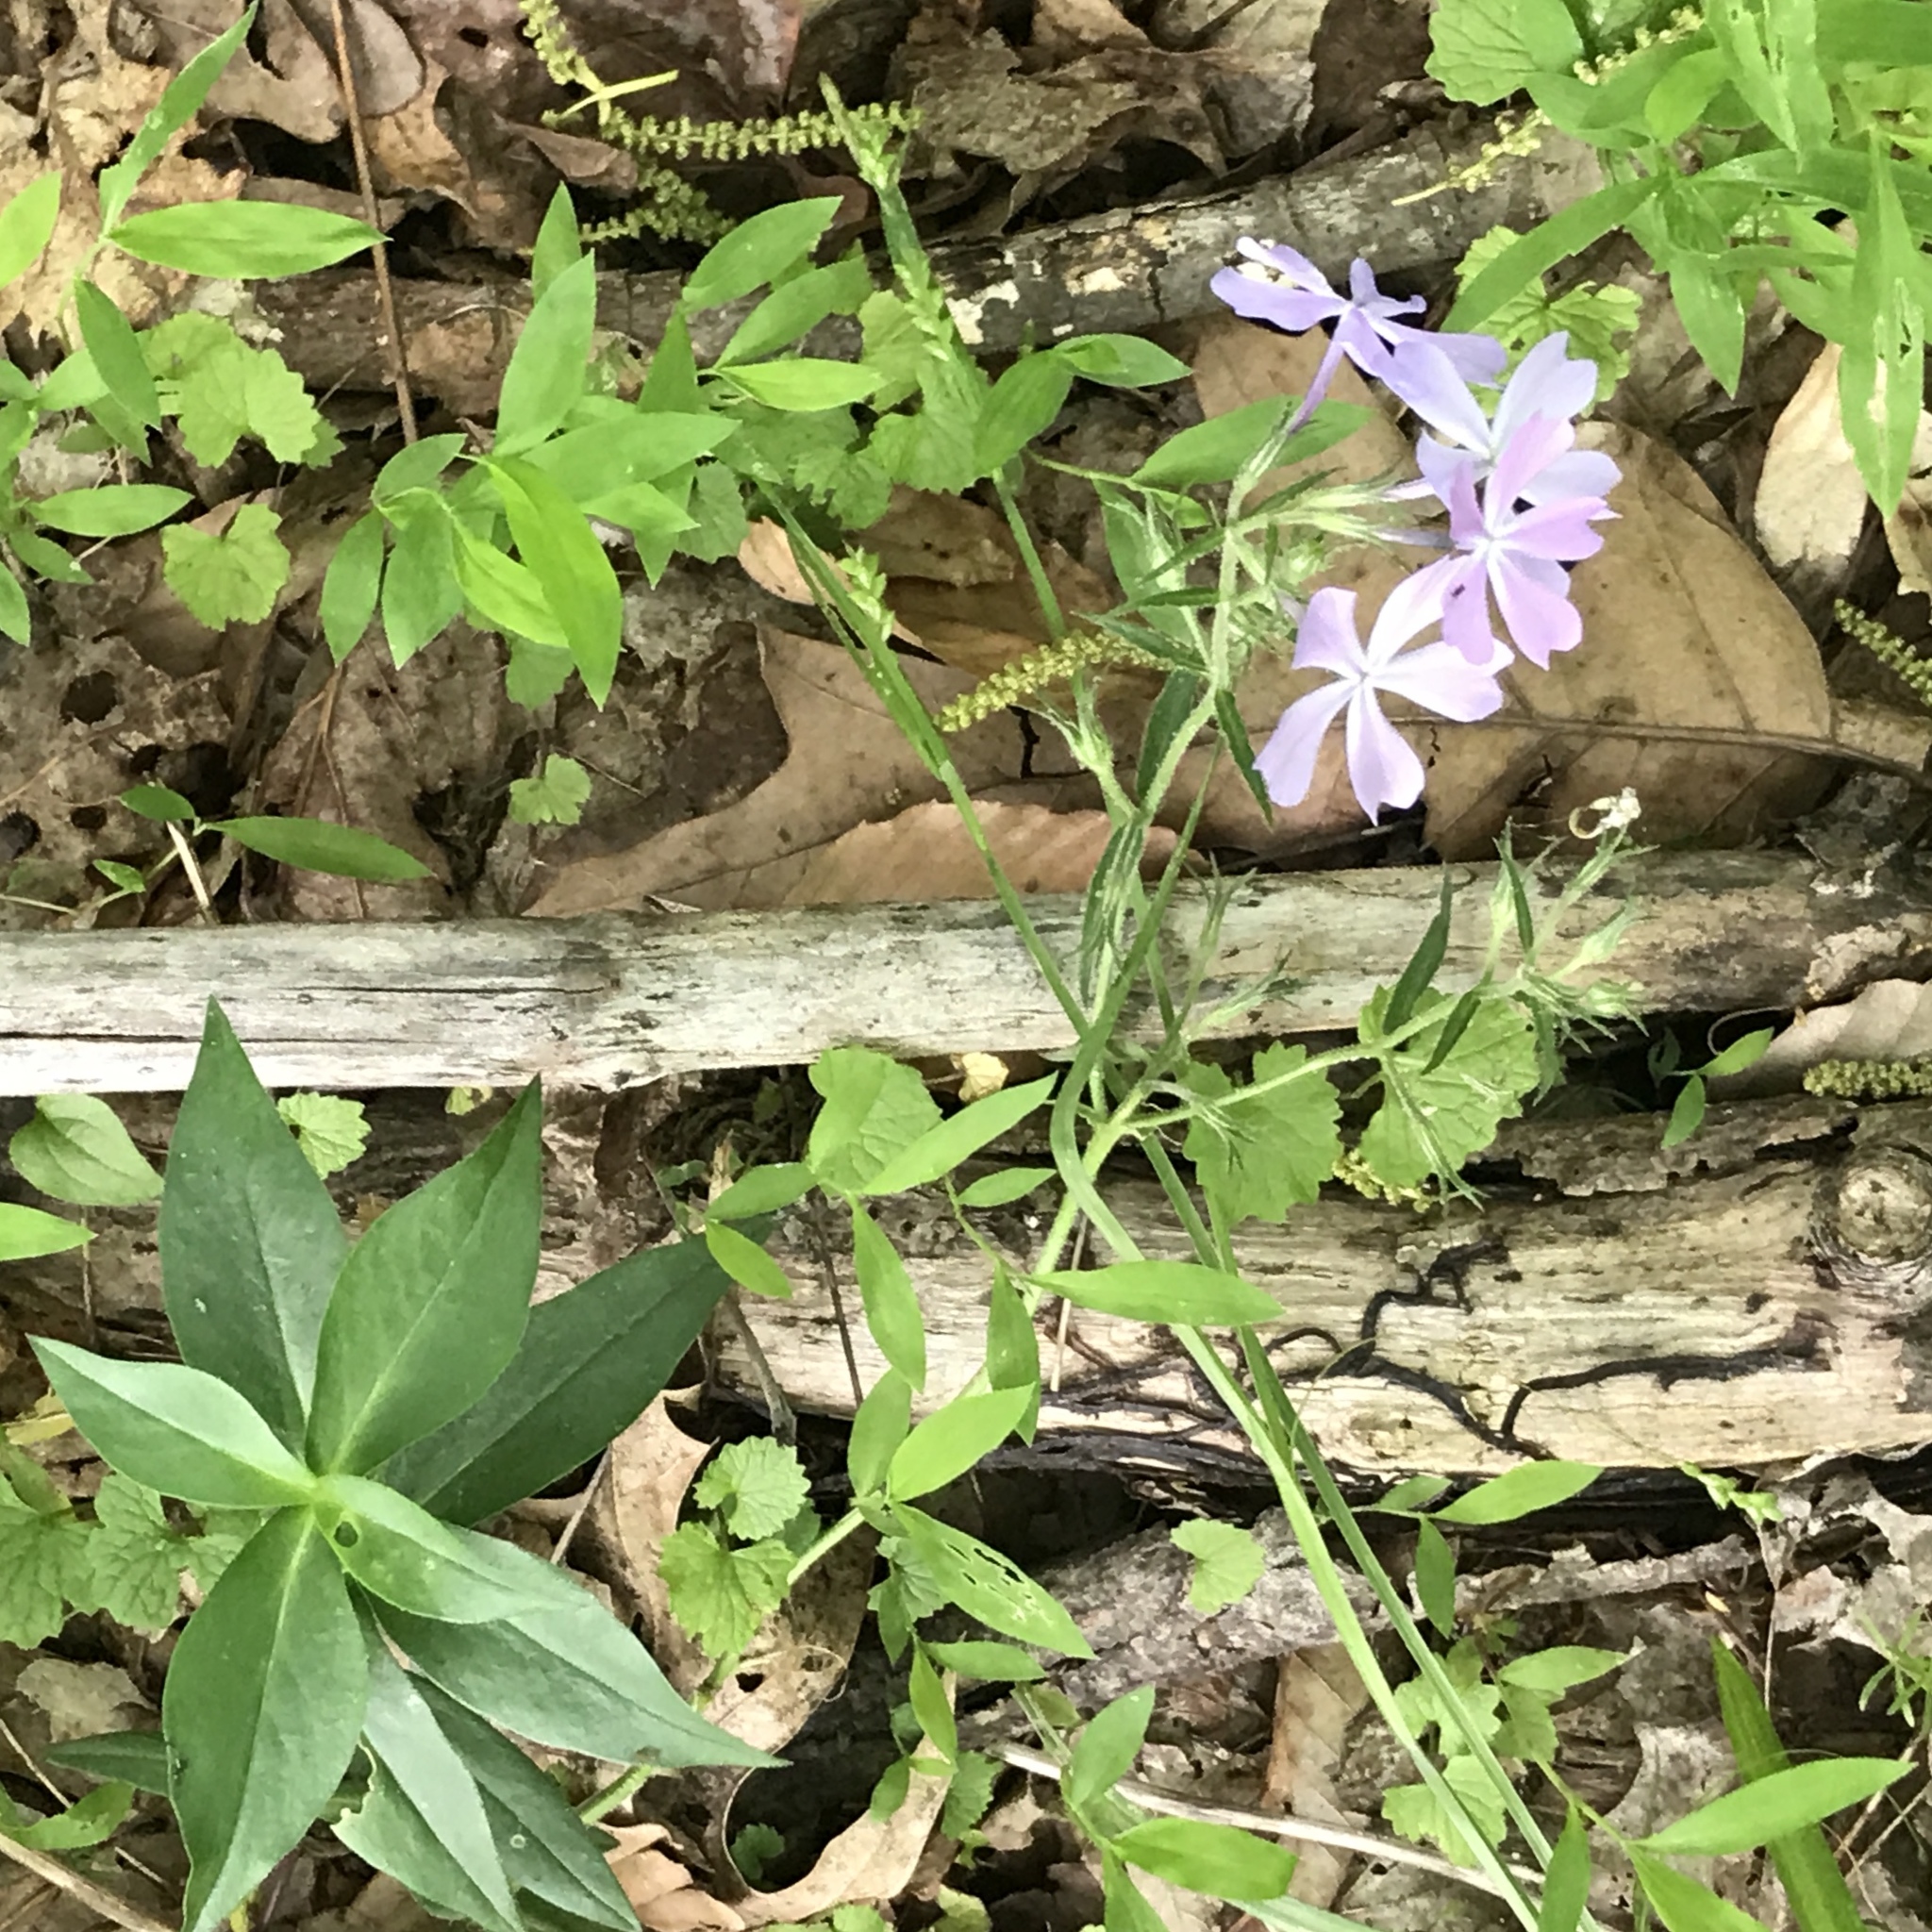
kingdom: Plantae
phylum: Tracheophyta
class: Magnoliopsida
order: Ericales
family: Polemoniaceae
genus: Phlox
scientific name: Phlox divaricata
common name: Blue phlox
